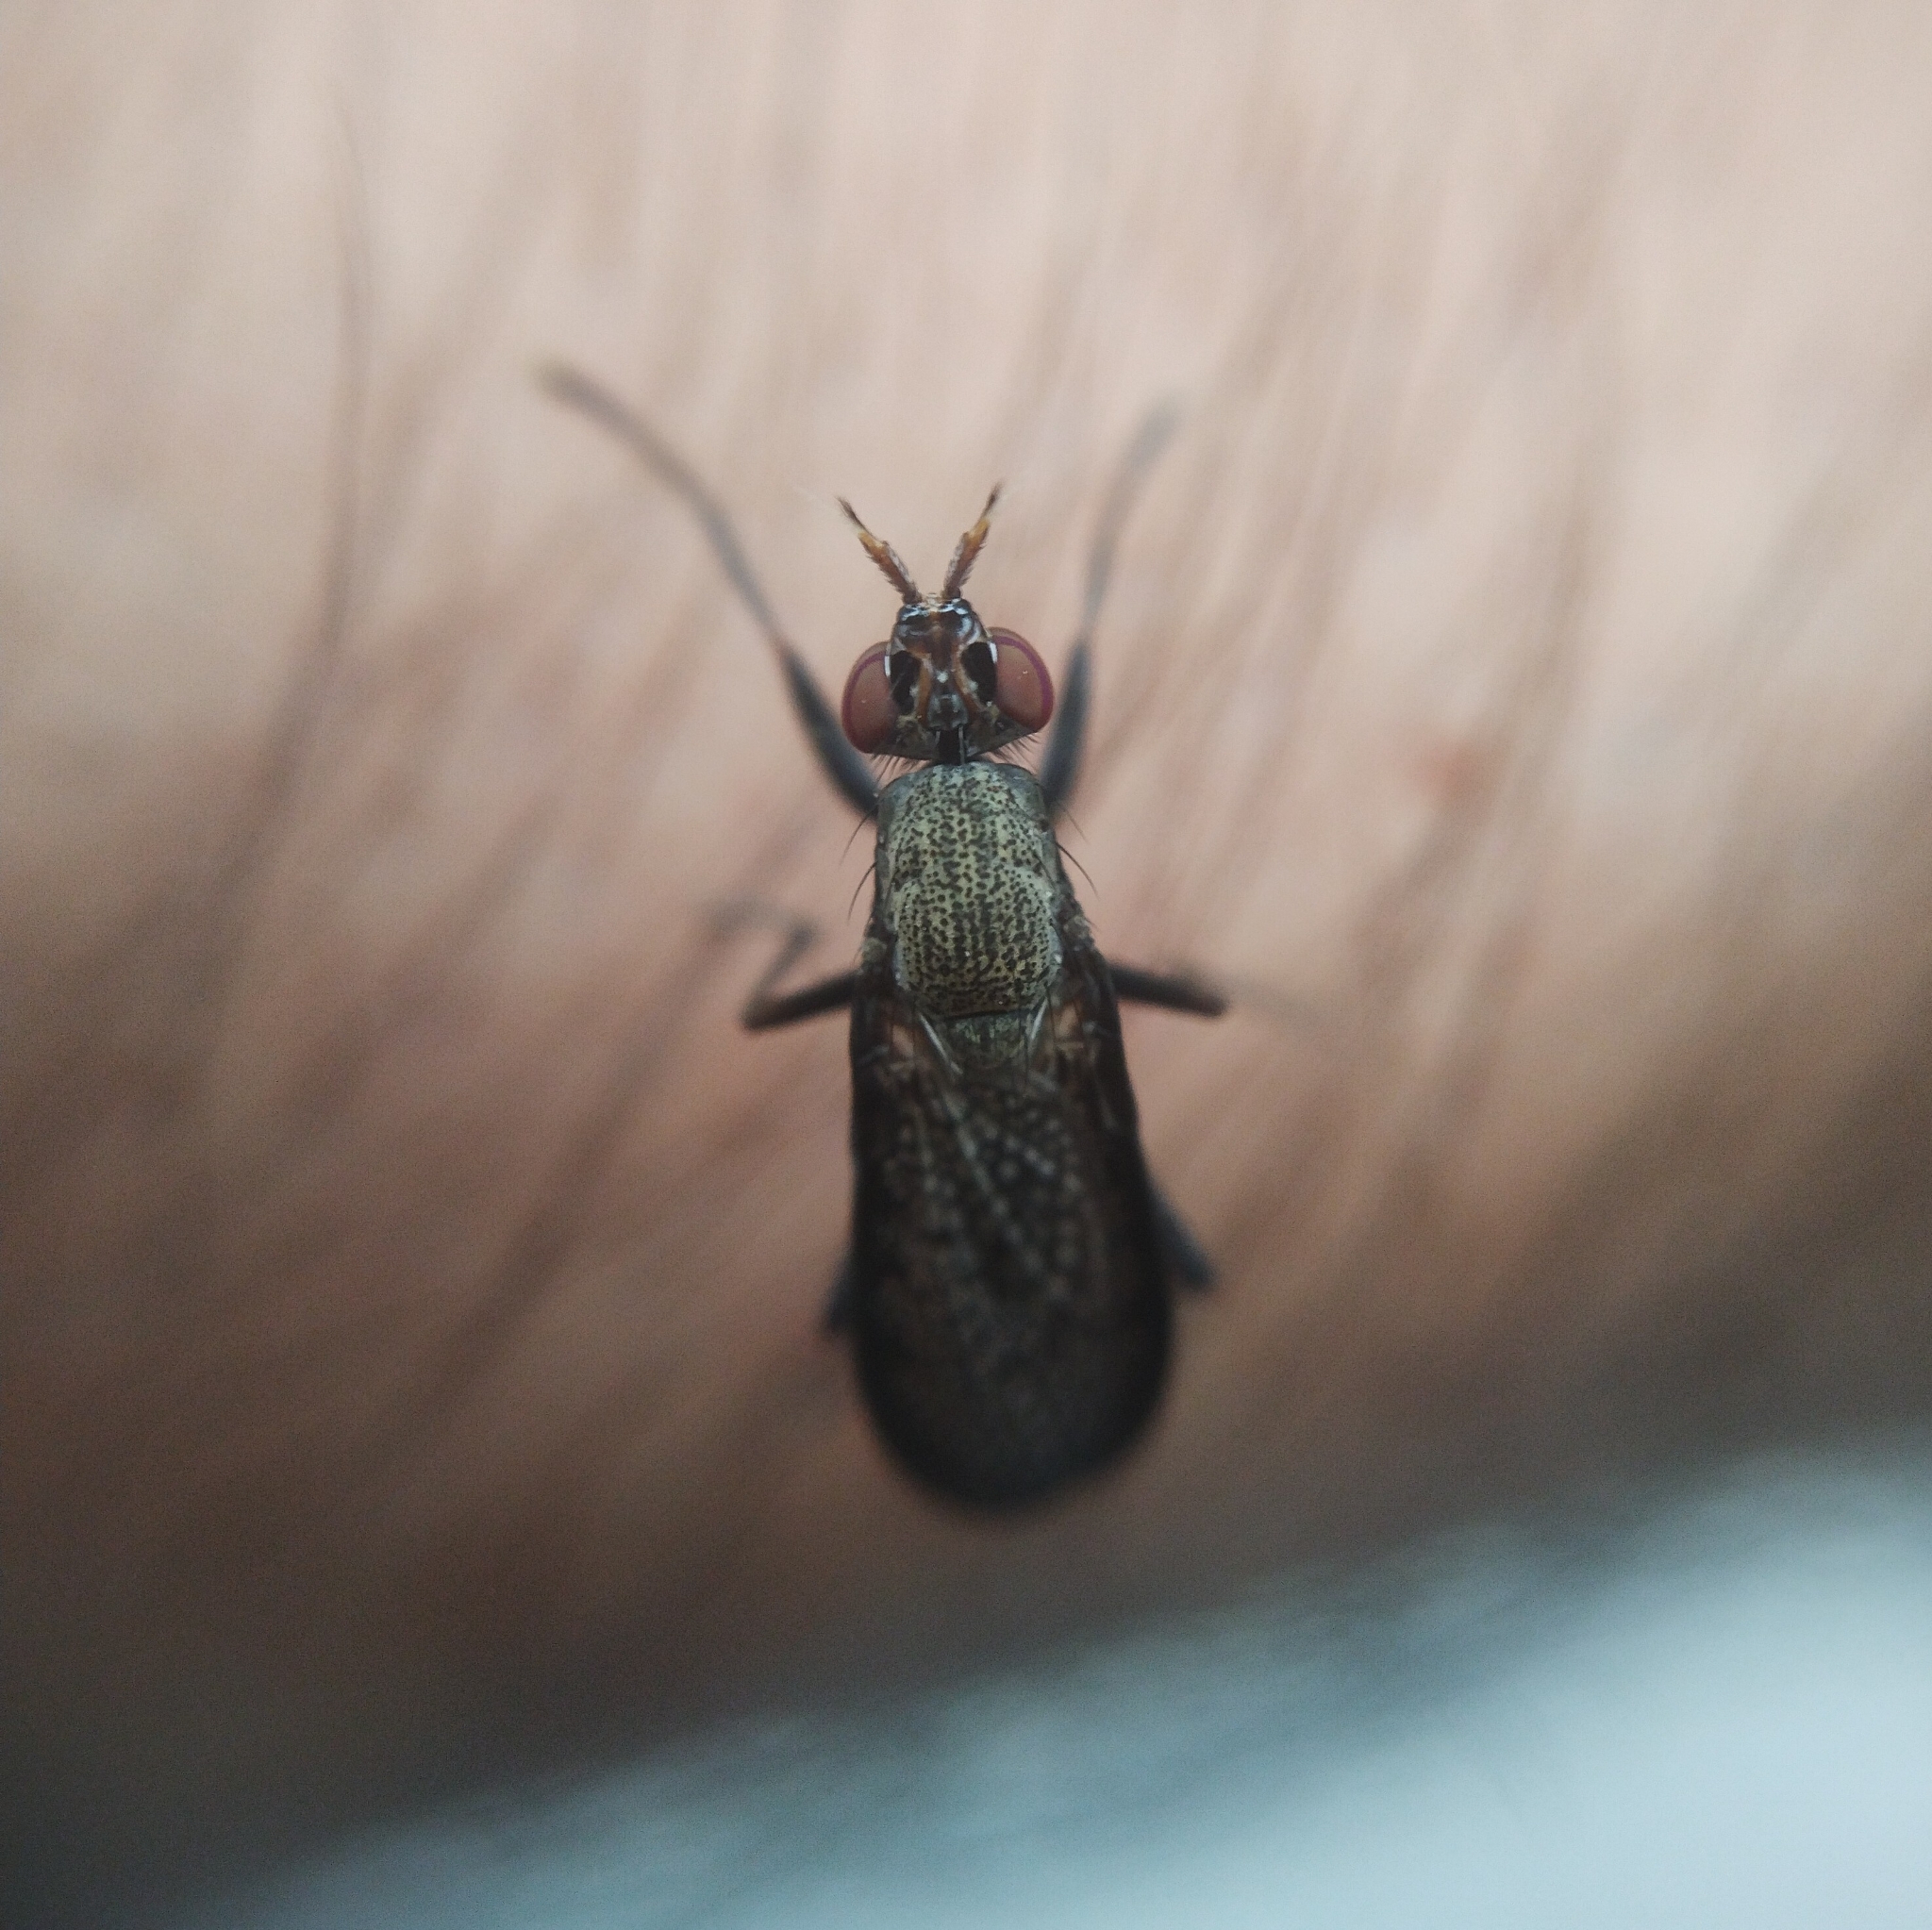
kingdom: Animalia
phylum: Arthropoda
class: Insecta
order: Diptera
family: Sciomyzidae
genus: Coremacera
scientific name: Coremacera marginata
